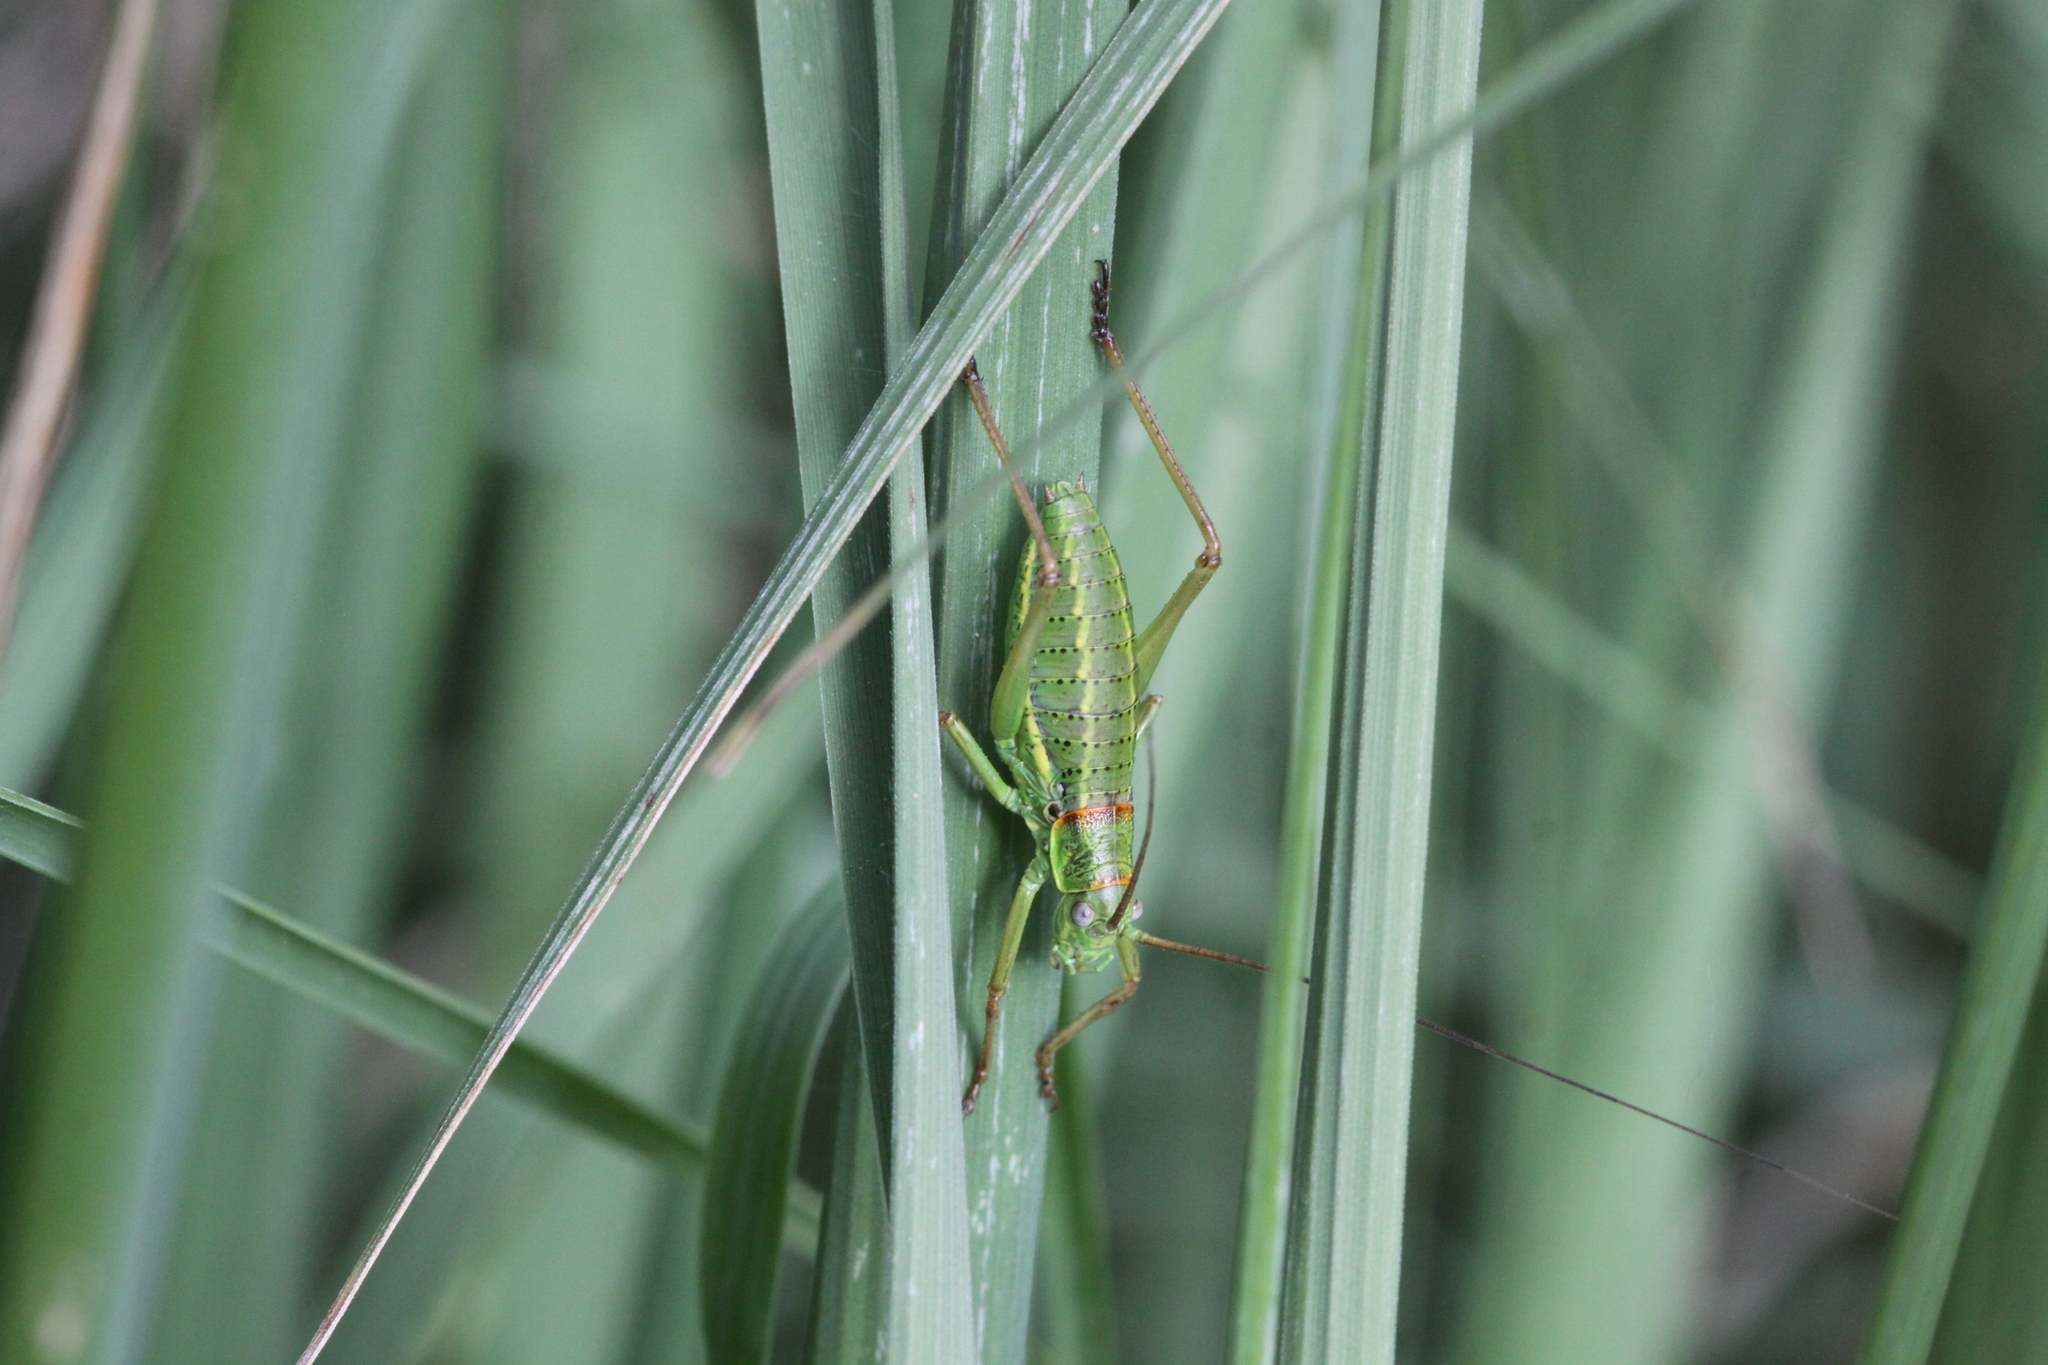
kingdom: Animalia
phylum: Arthropoda
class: Insecta
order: Orthoptera
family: Tettigoniidae
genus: Ephippiger
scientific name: Ephippiger diurnus
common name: Western saddle bush-cricket
